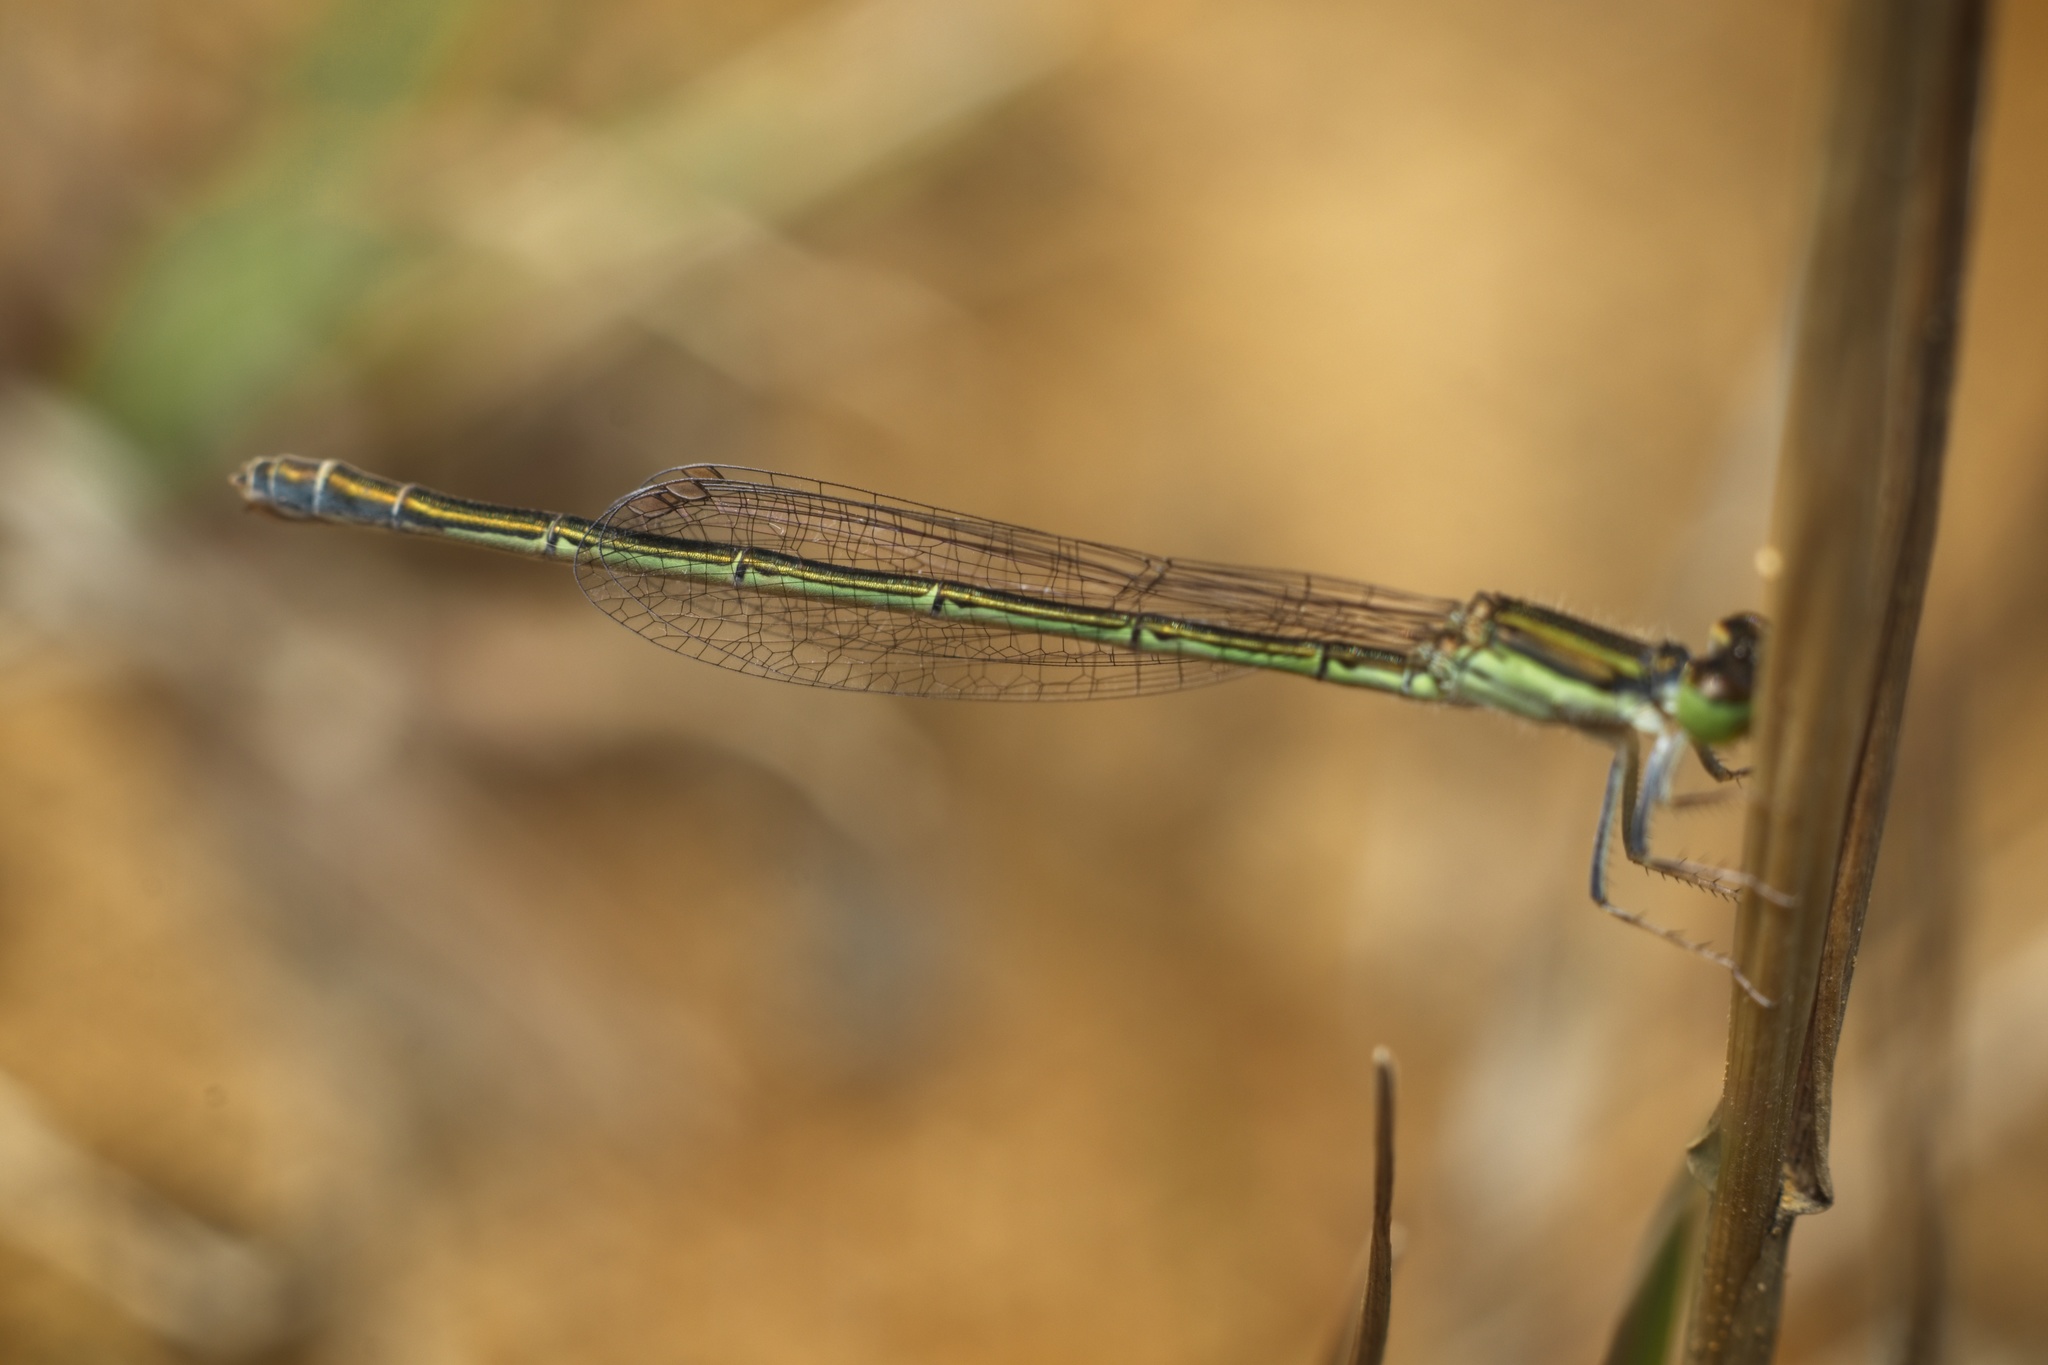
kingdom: Animalia
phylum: Arthropoda
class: Insecta
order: Odonata
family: Coenagrionidae
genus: Ischnura
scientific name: Ischnura aurora
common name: Gossamer damselfly
